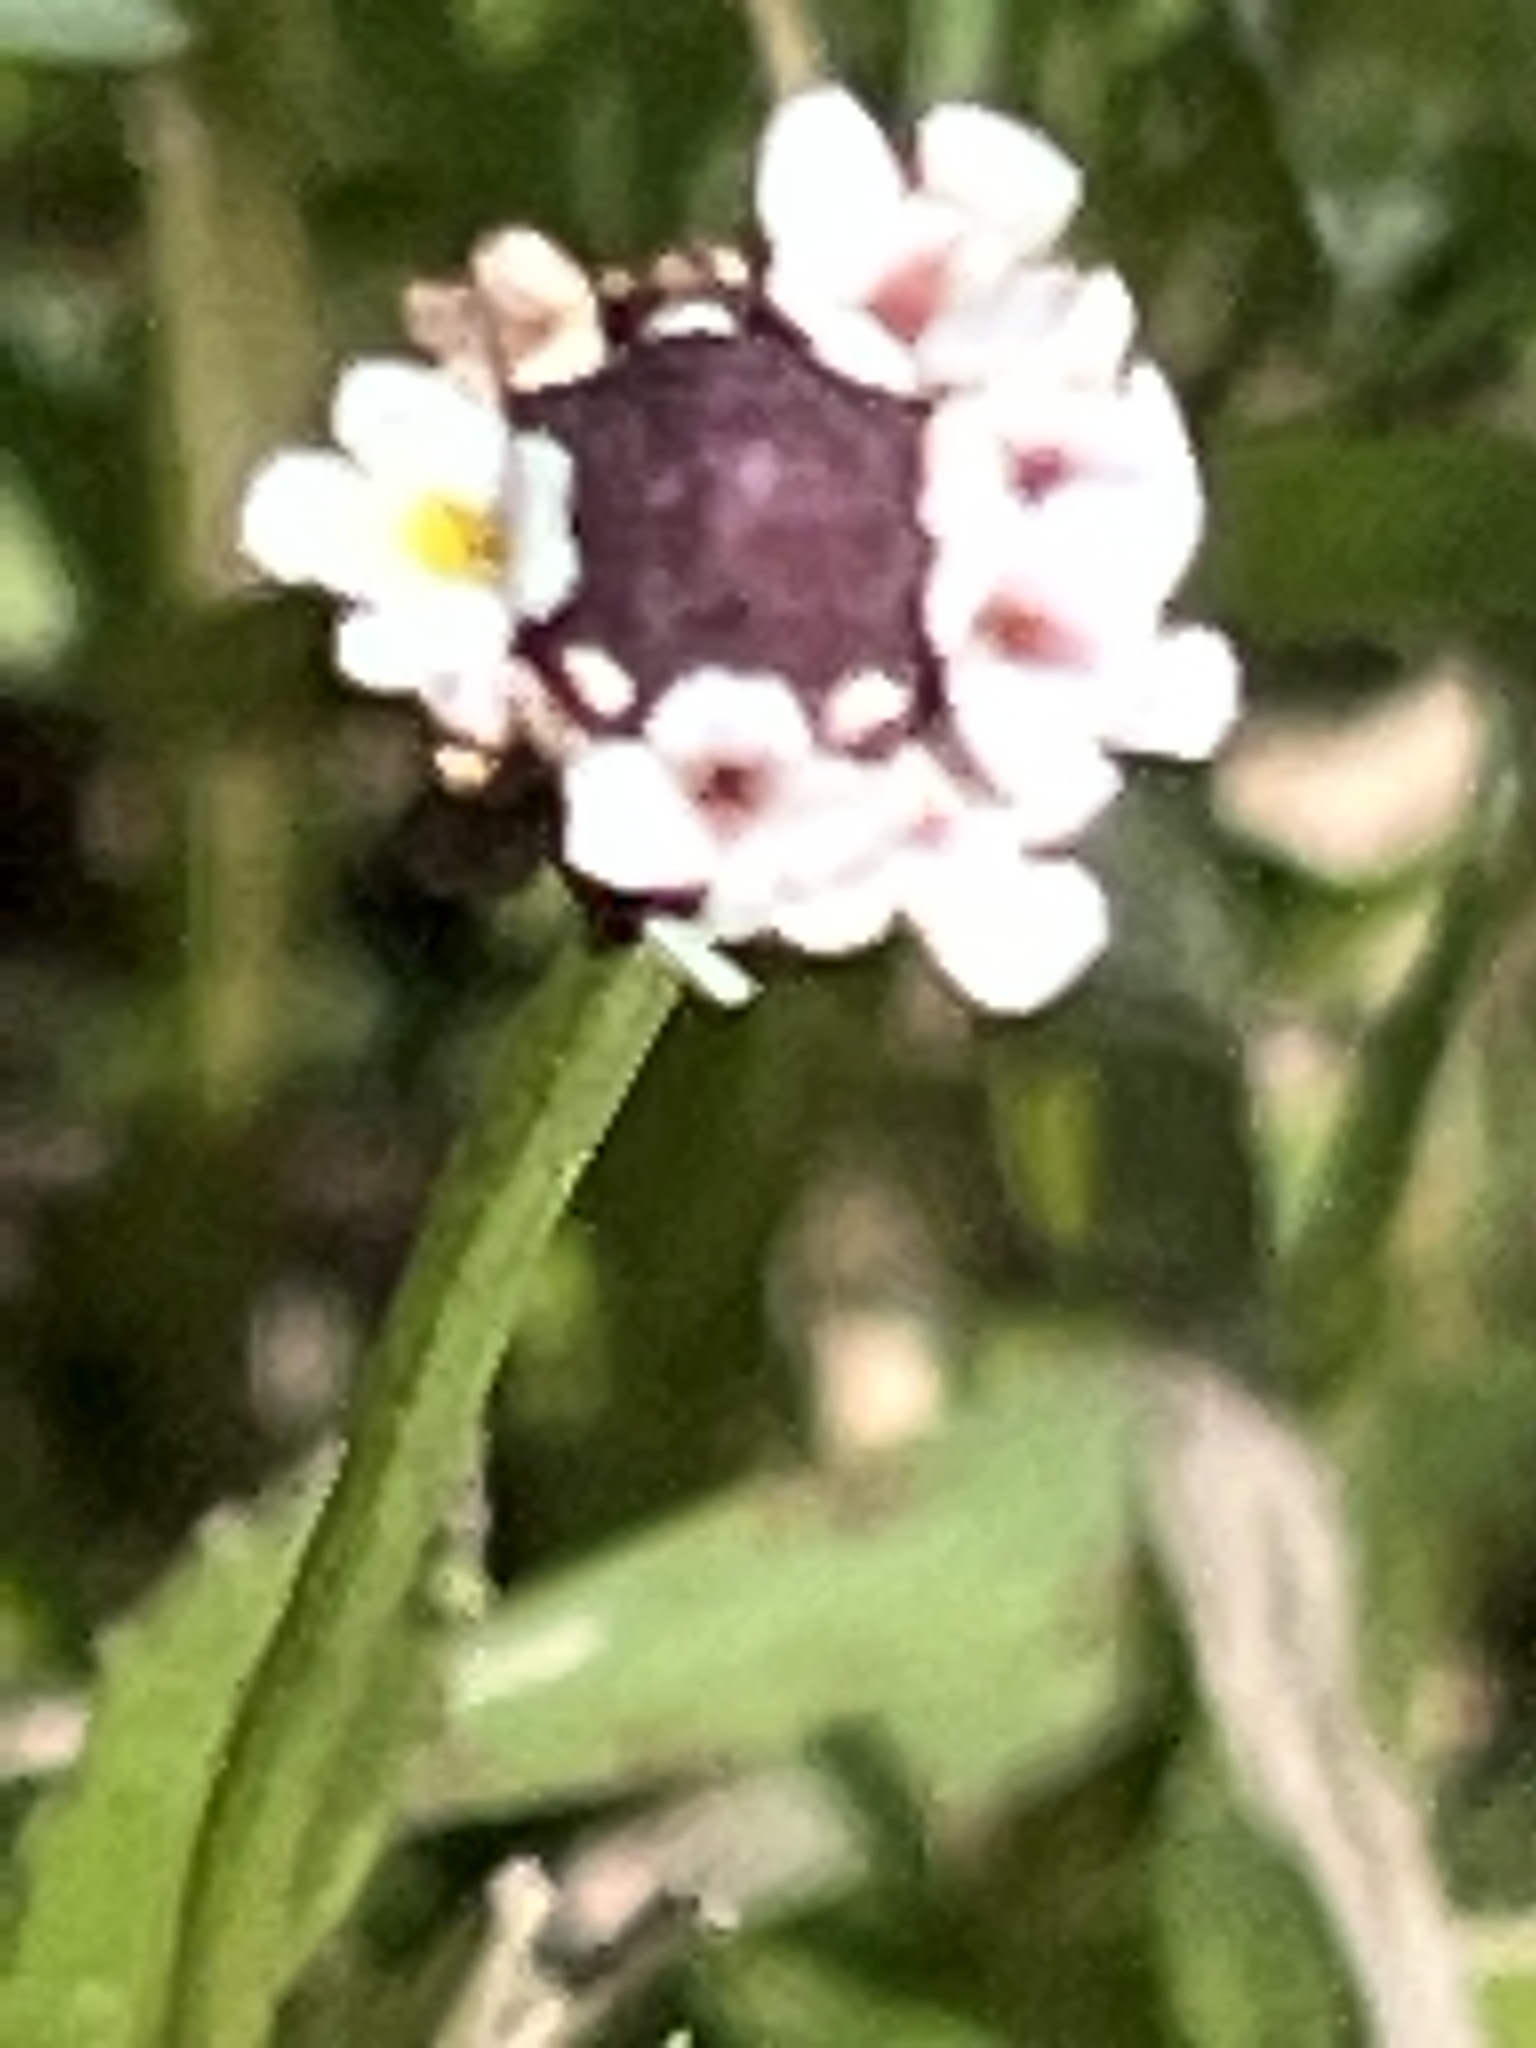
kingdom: Plantae
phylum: Tracheophyta
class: Magnoliopsida
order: Lamiales
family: Verbenaceae
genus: Phyla
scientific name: Phyla nodiflora
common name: Frogfruit
